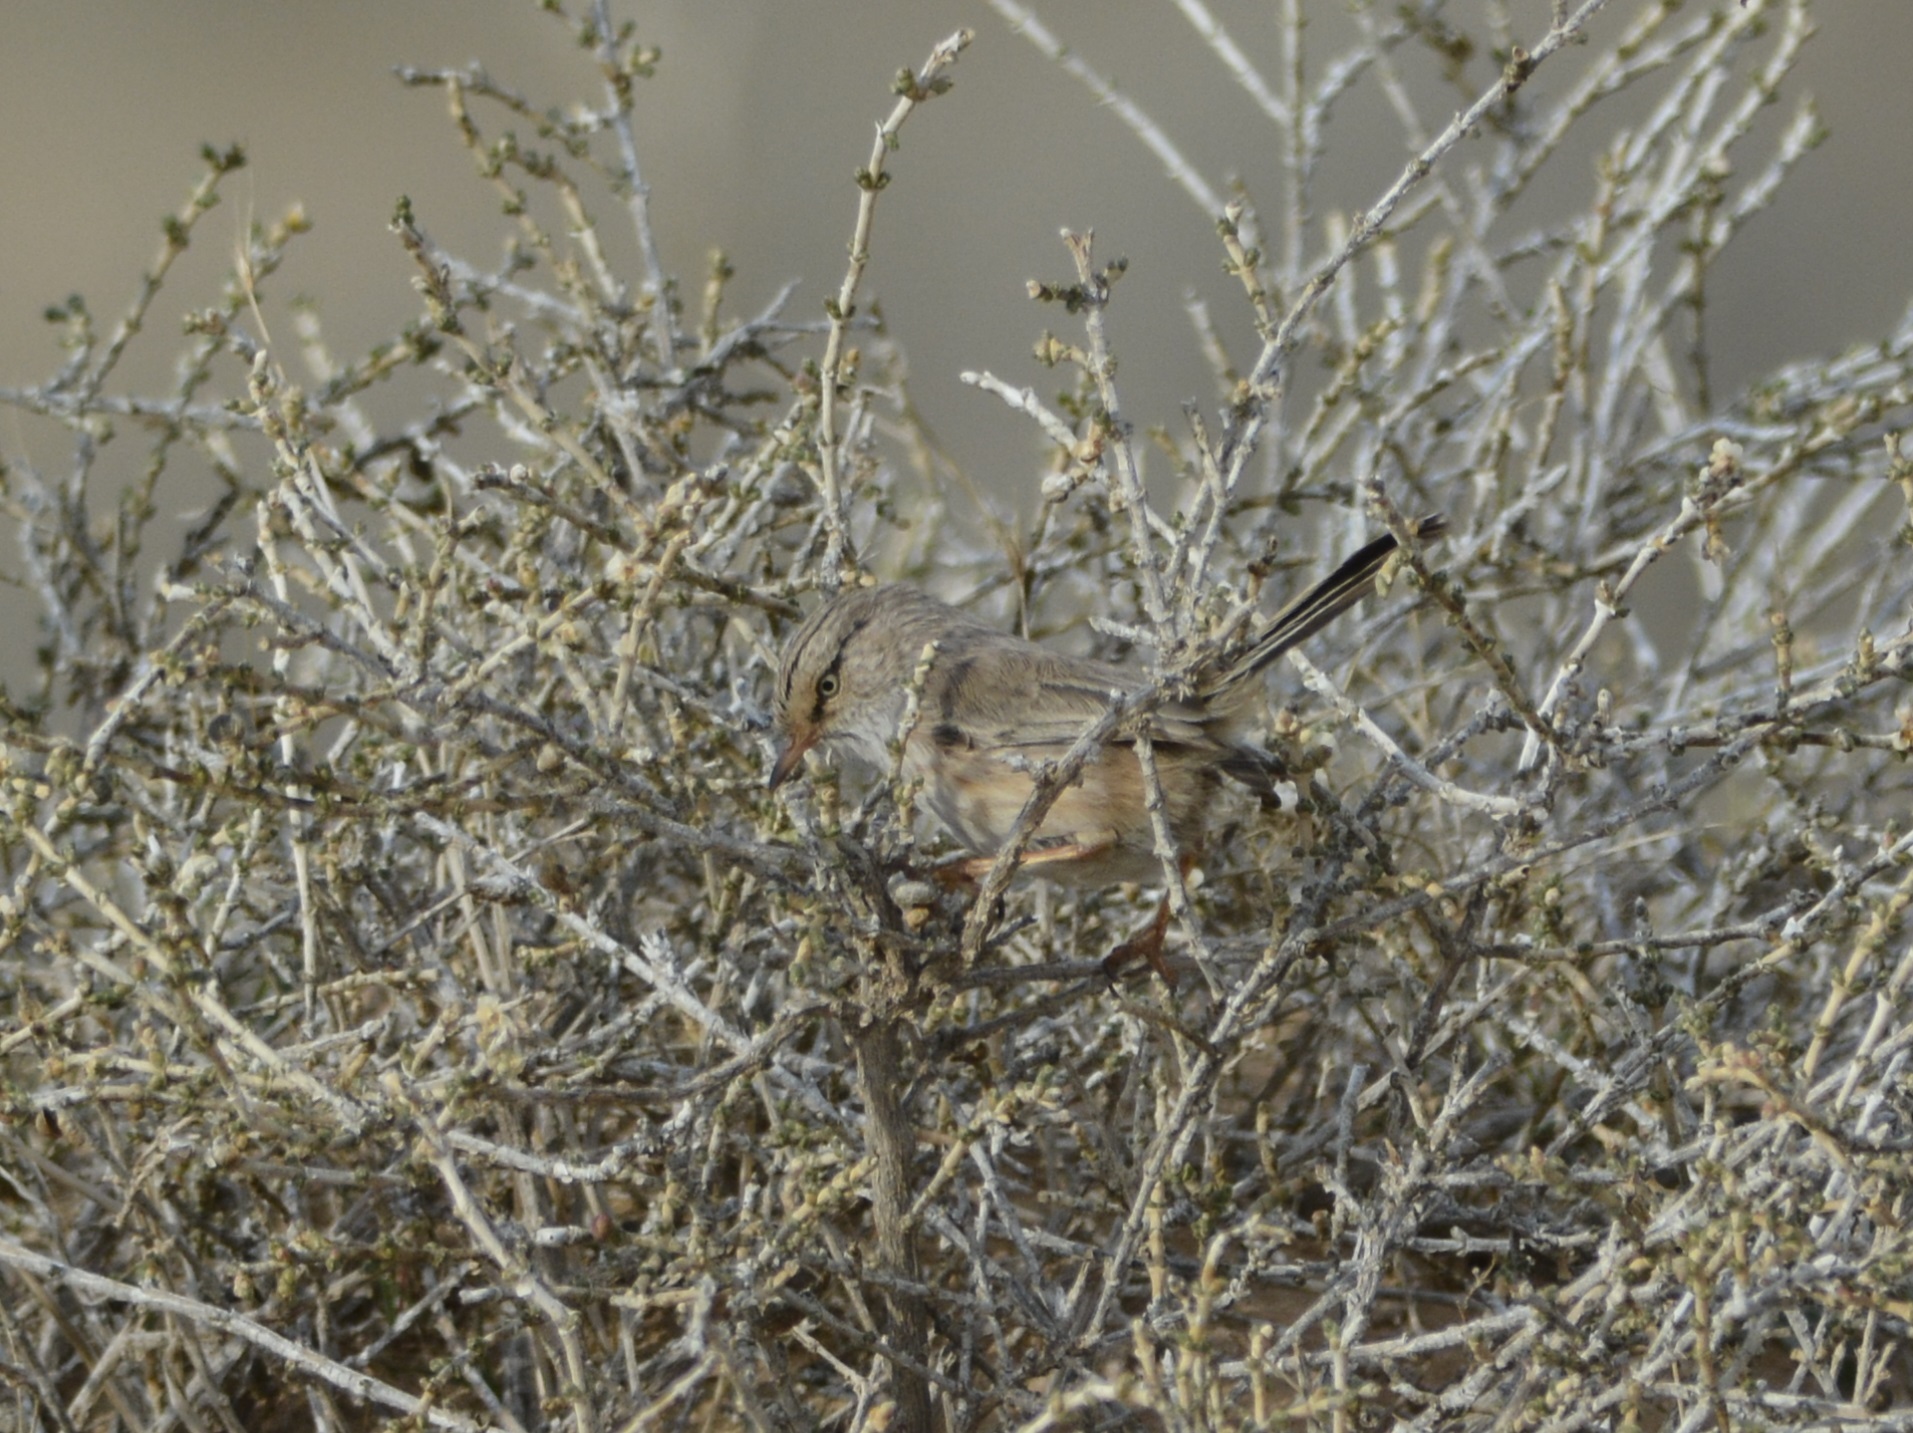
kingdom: Animalia
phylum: Chordata
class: Aves
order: Passeriformes
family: Scotocercidae
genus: Scotocerca
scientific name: Scotocerca inquieta
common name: Scrub warbler
